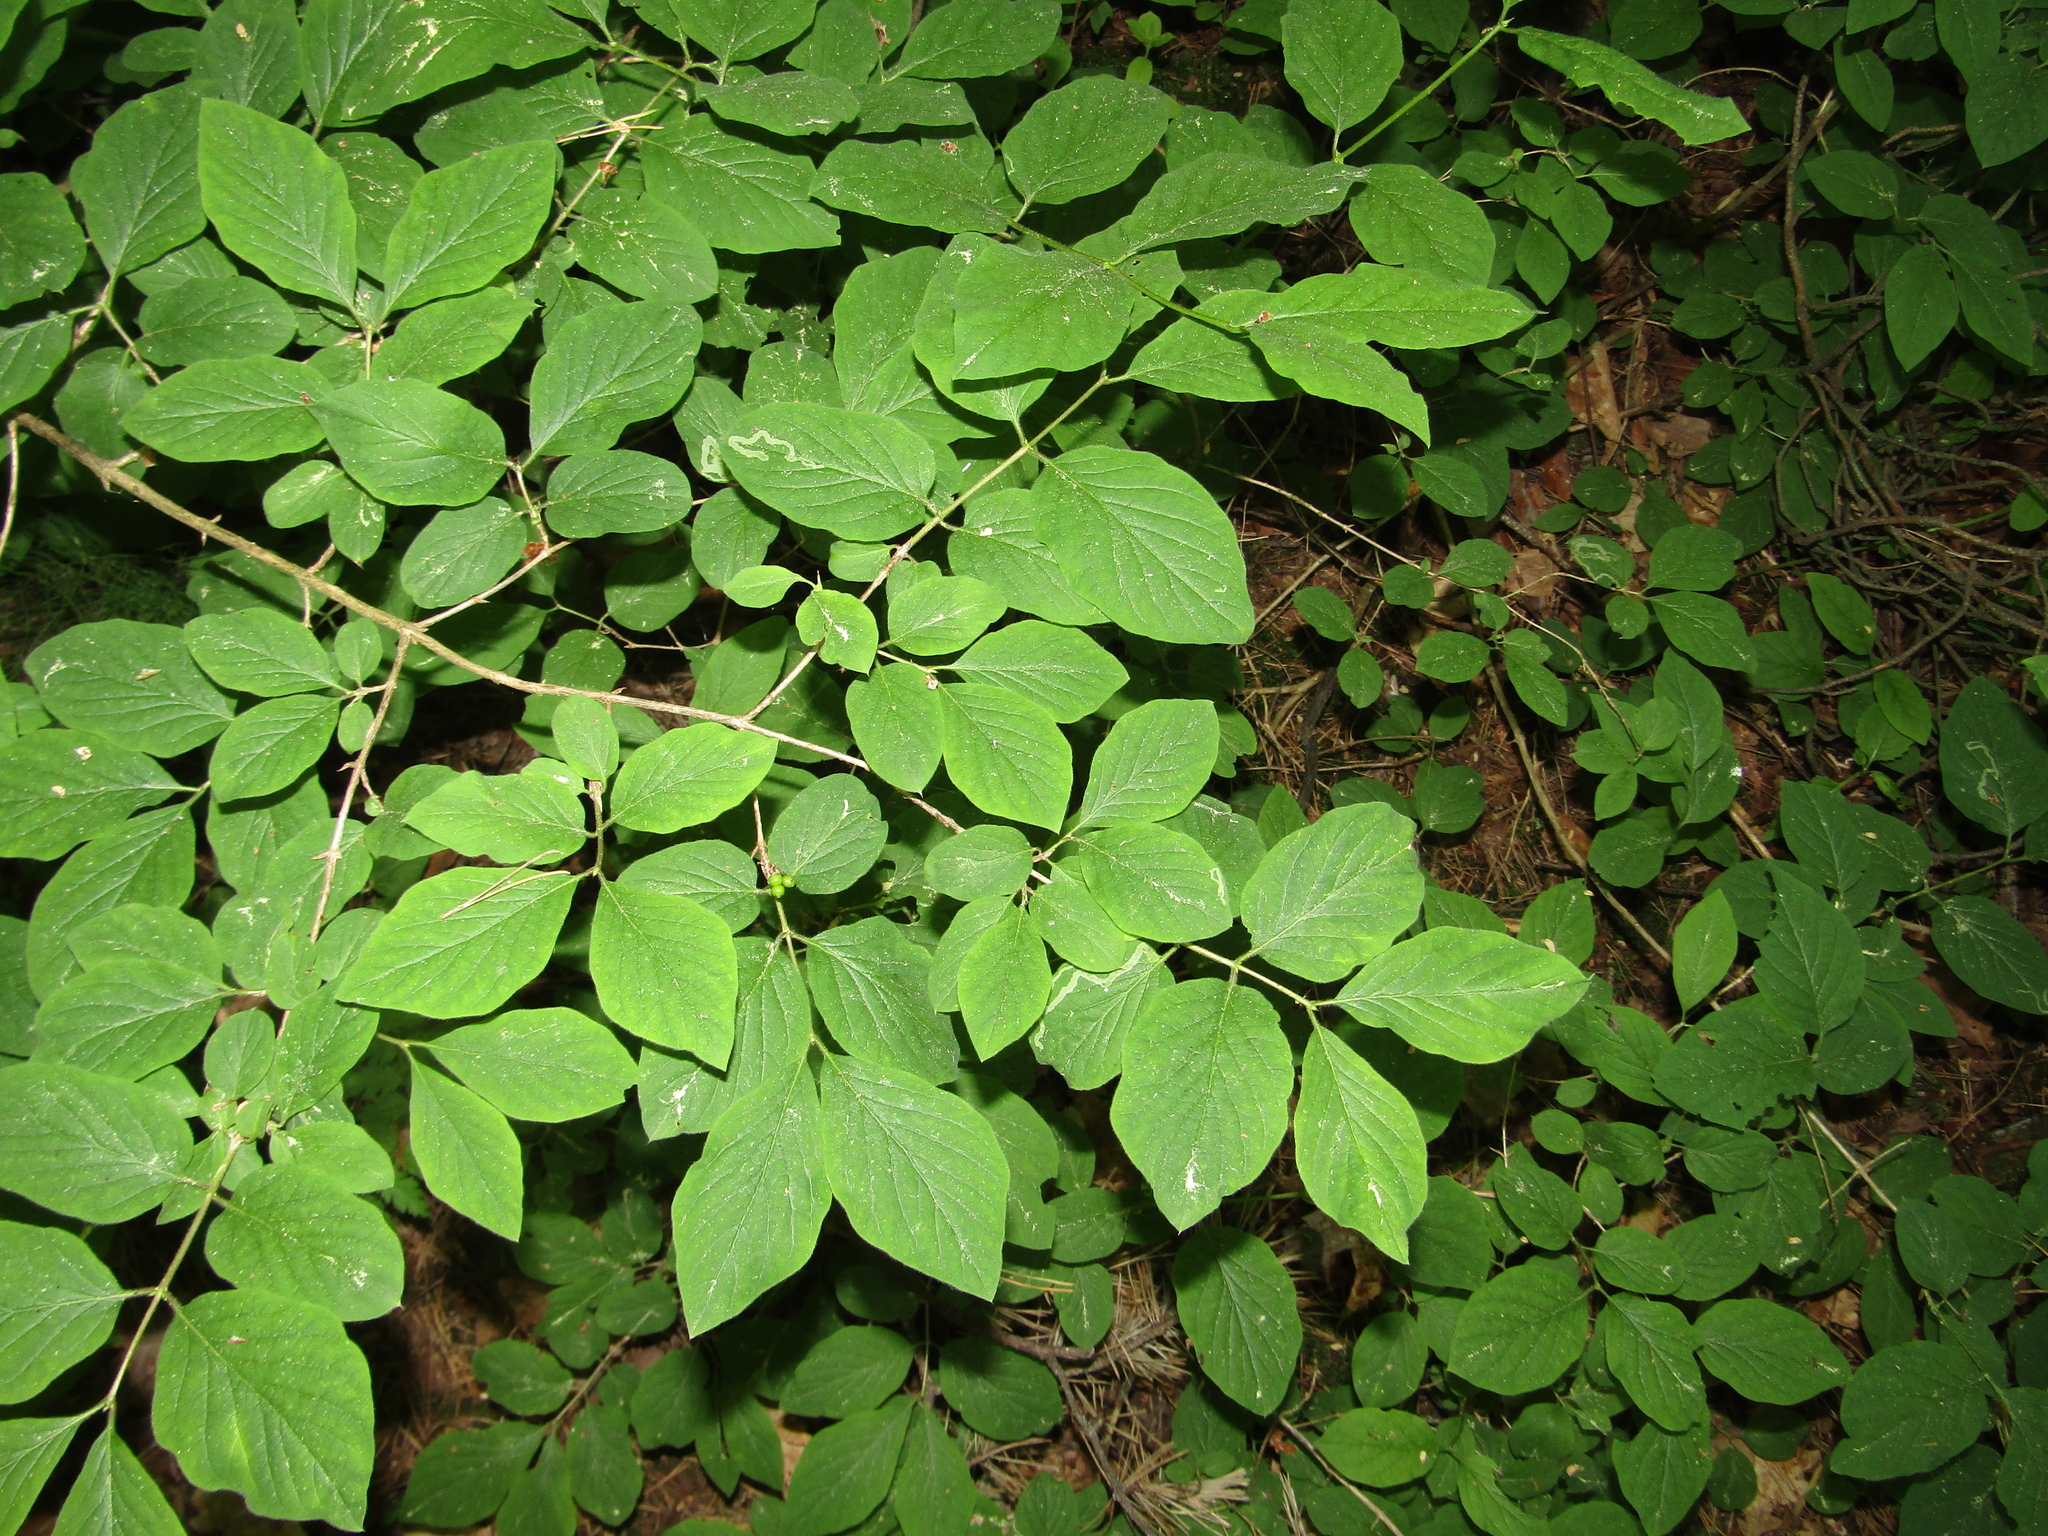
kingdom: Plantae
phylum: Tracheophyta
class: Magnoliopsida
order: Dipsacales
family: Caprifoliaceae
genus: Lonicera
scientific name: Lonicera xylosteum
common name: Fly honeysuckle
